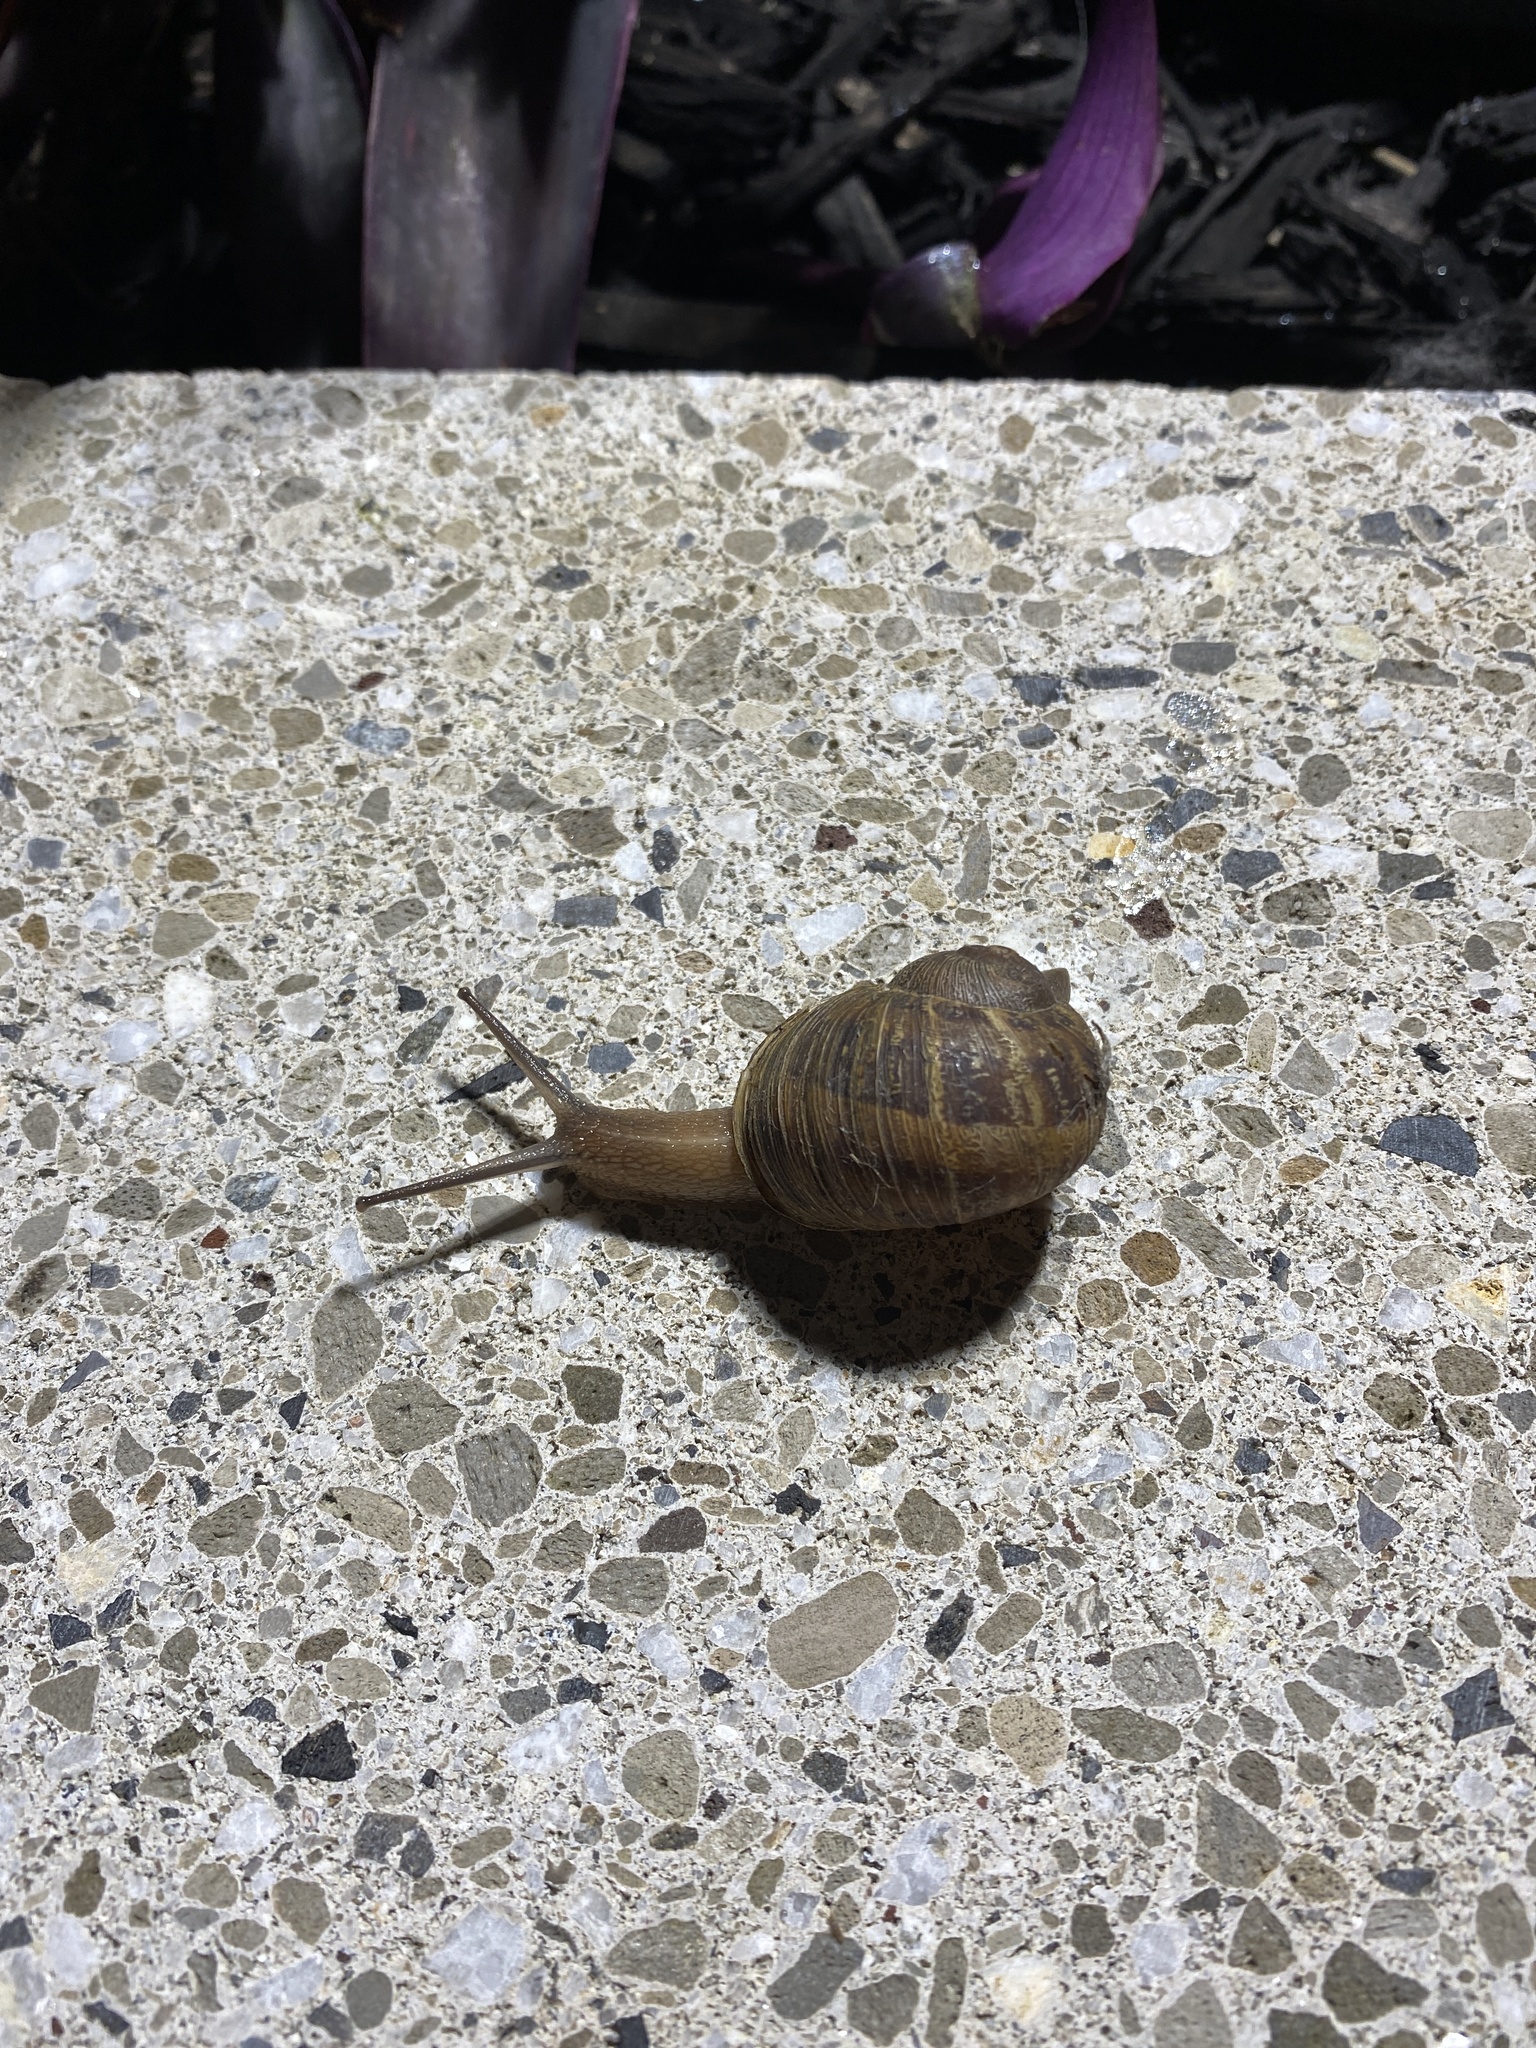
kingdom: Animalia
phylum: Mollusca
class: Gastropoda
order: Stylommatophora
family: Helicidae
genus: Cornu
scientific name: Cornu aspersum
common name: Brown garden snail
